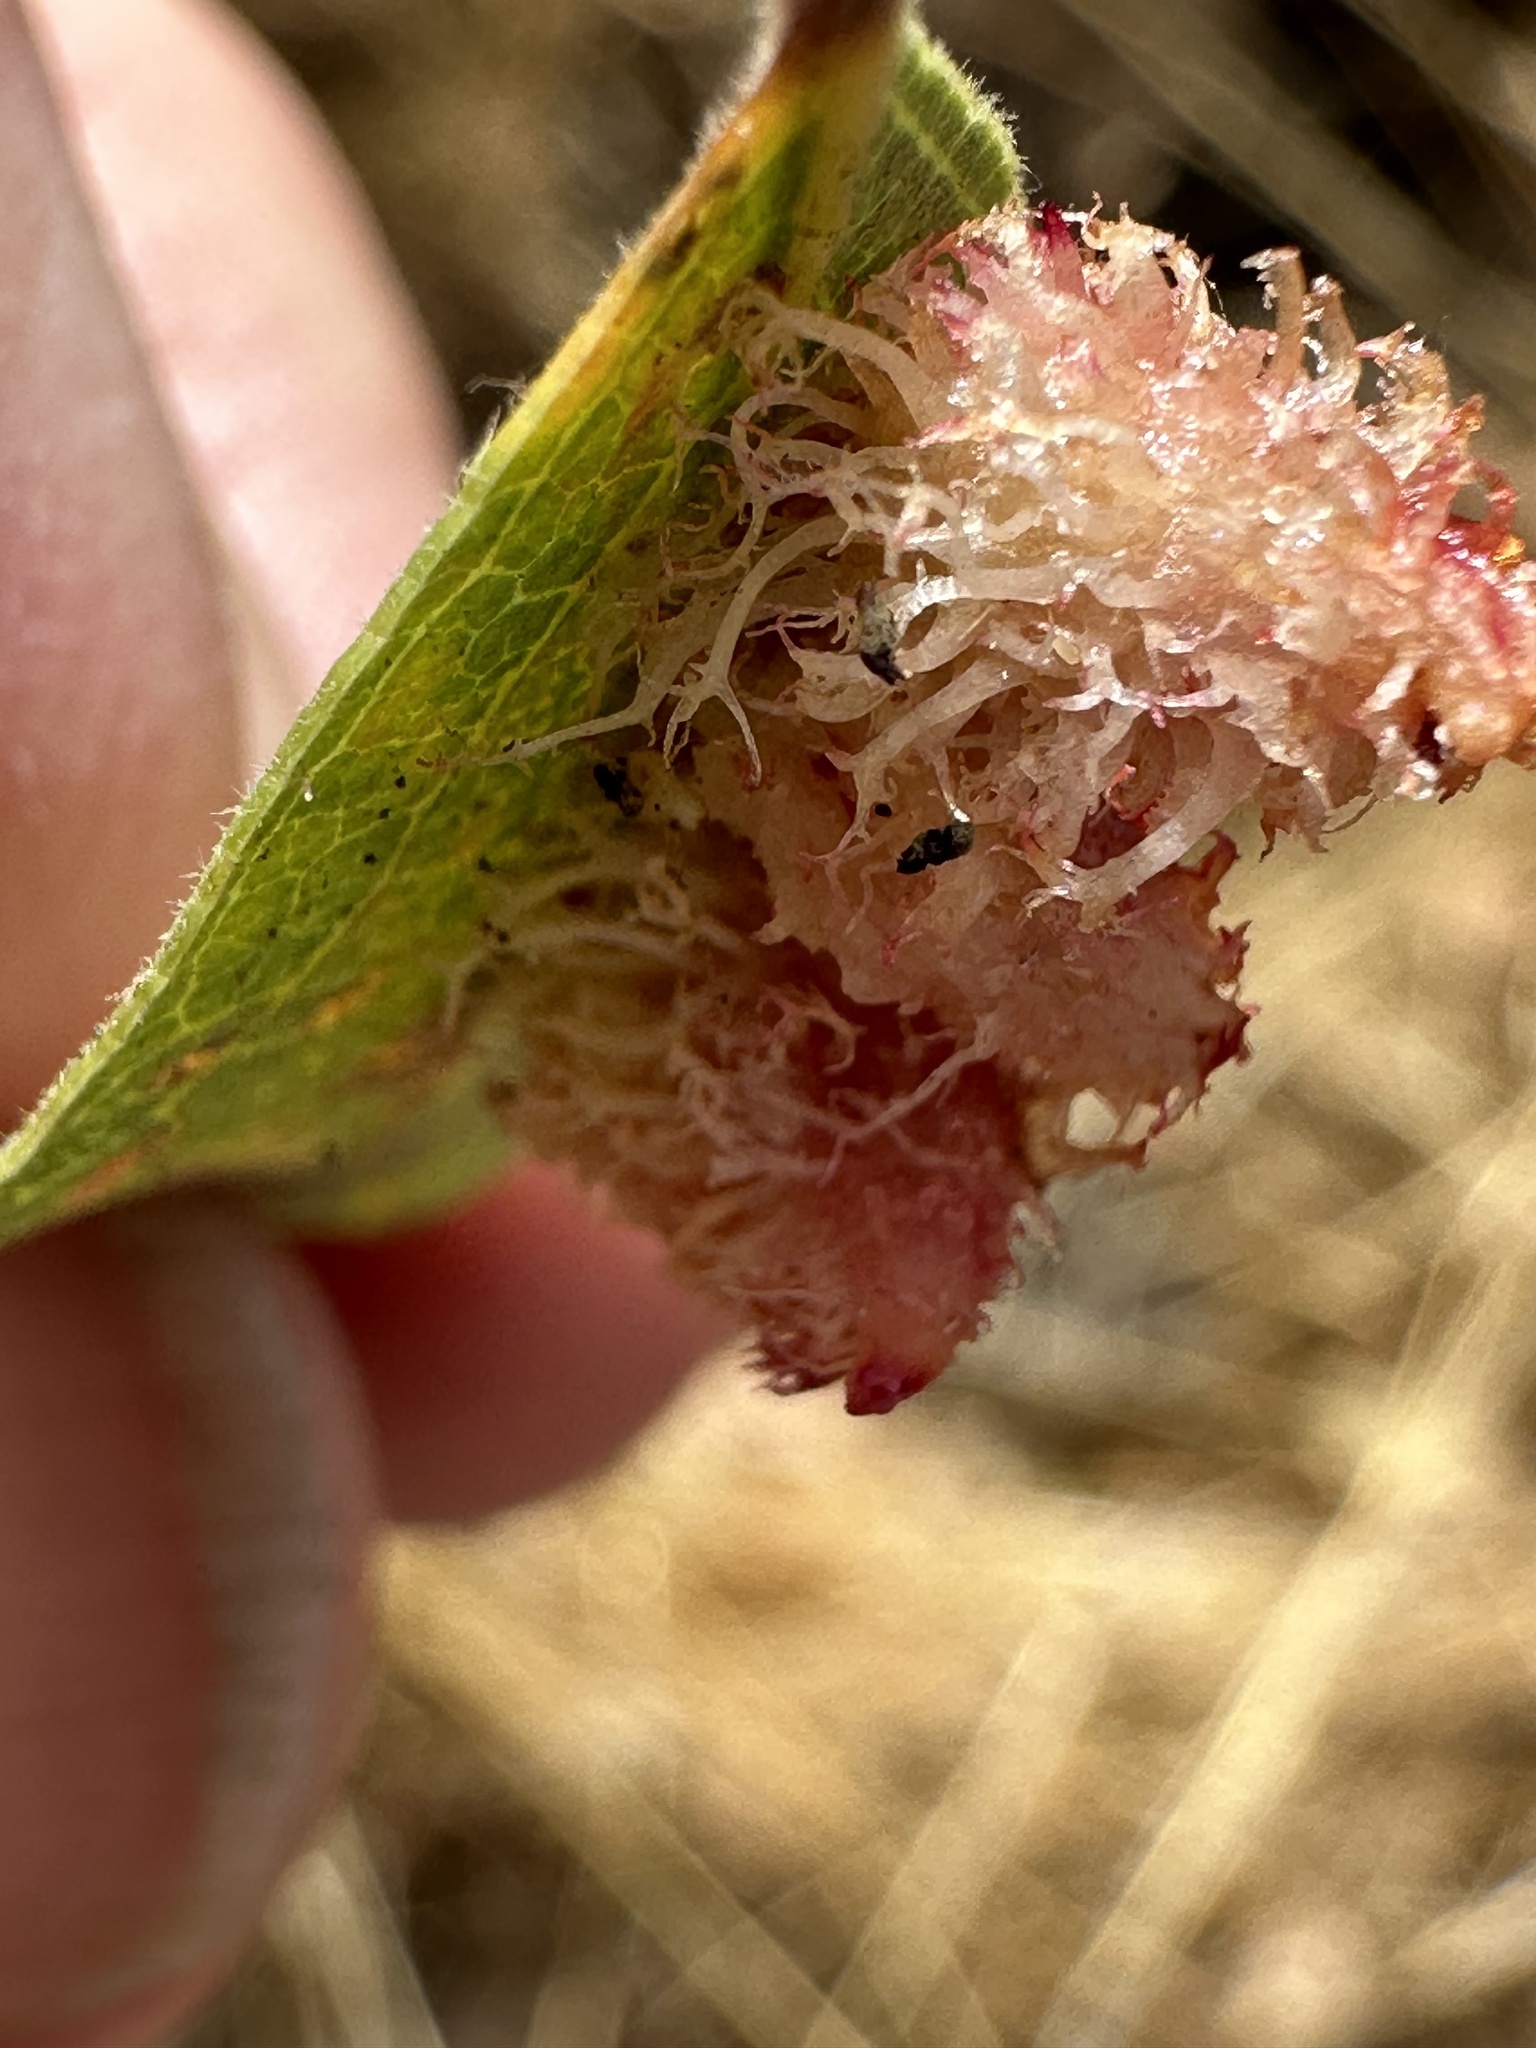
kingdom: Animalia
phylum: Arthropoda
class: Insecta
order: Hymenoptera
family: Cynipidae
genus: Andricus
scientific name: Andricus
